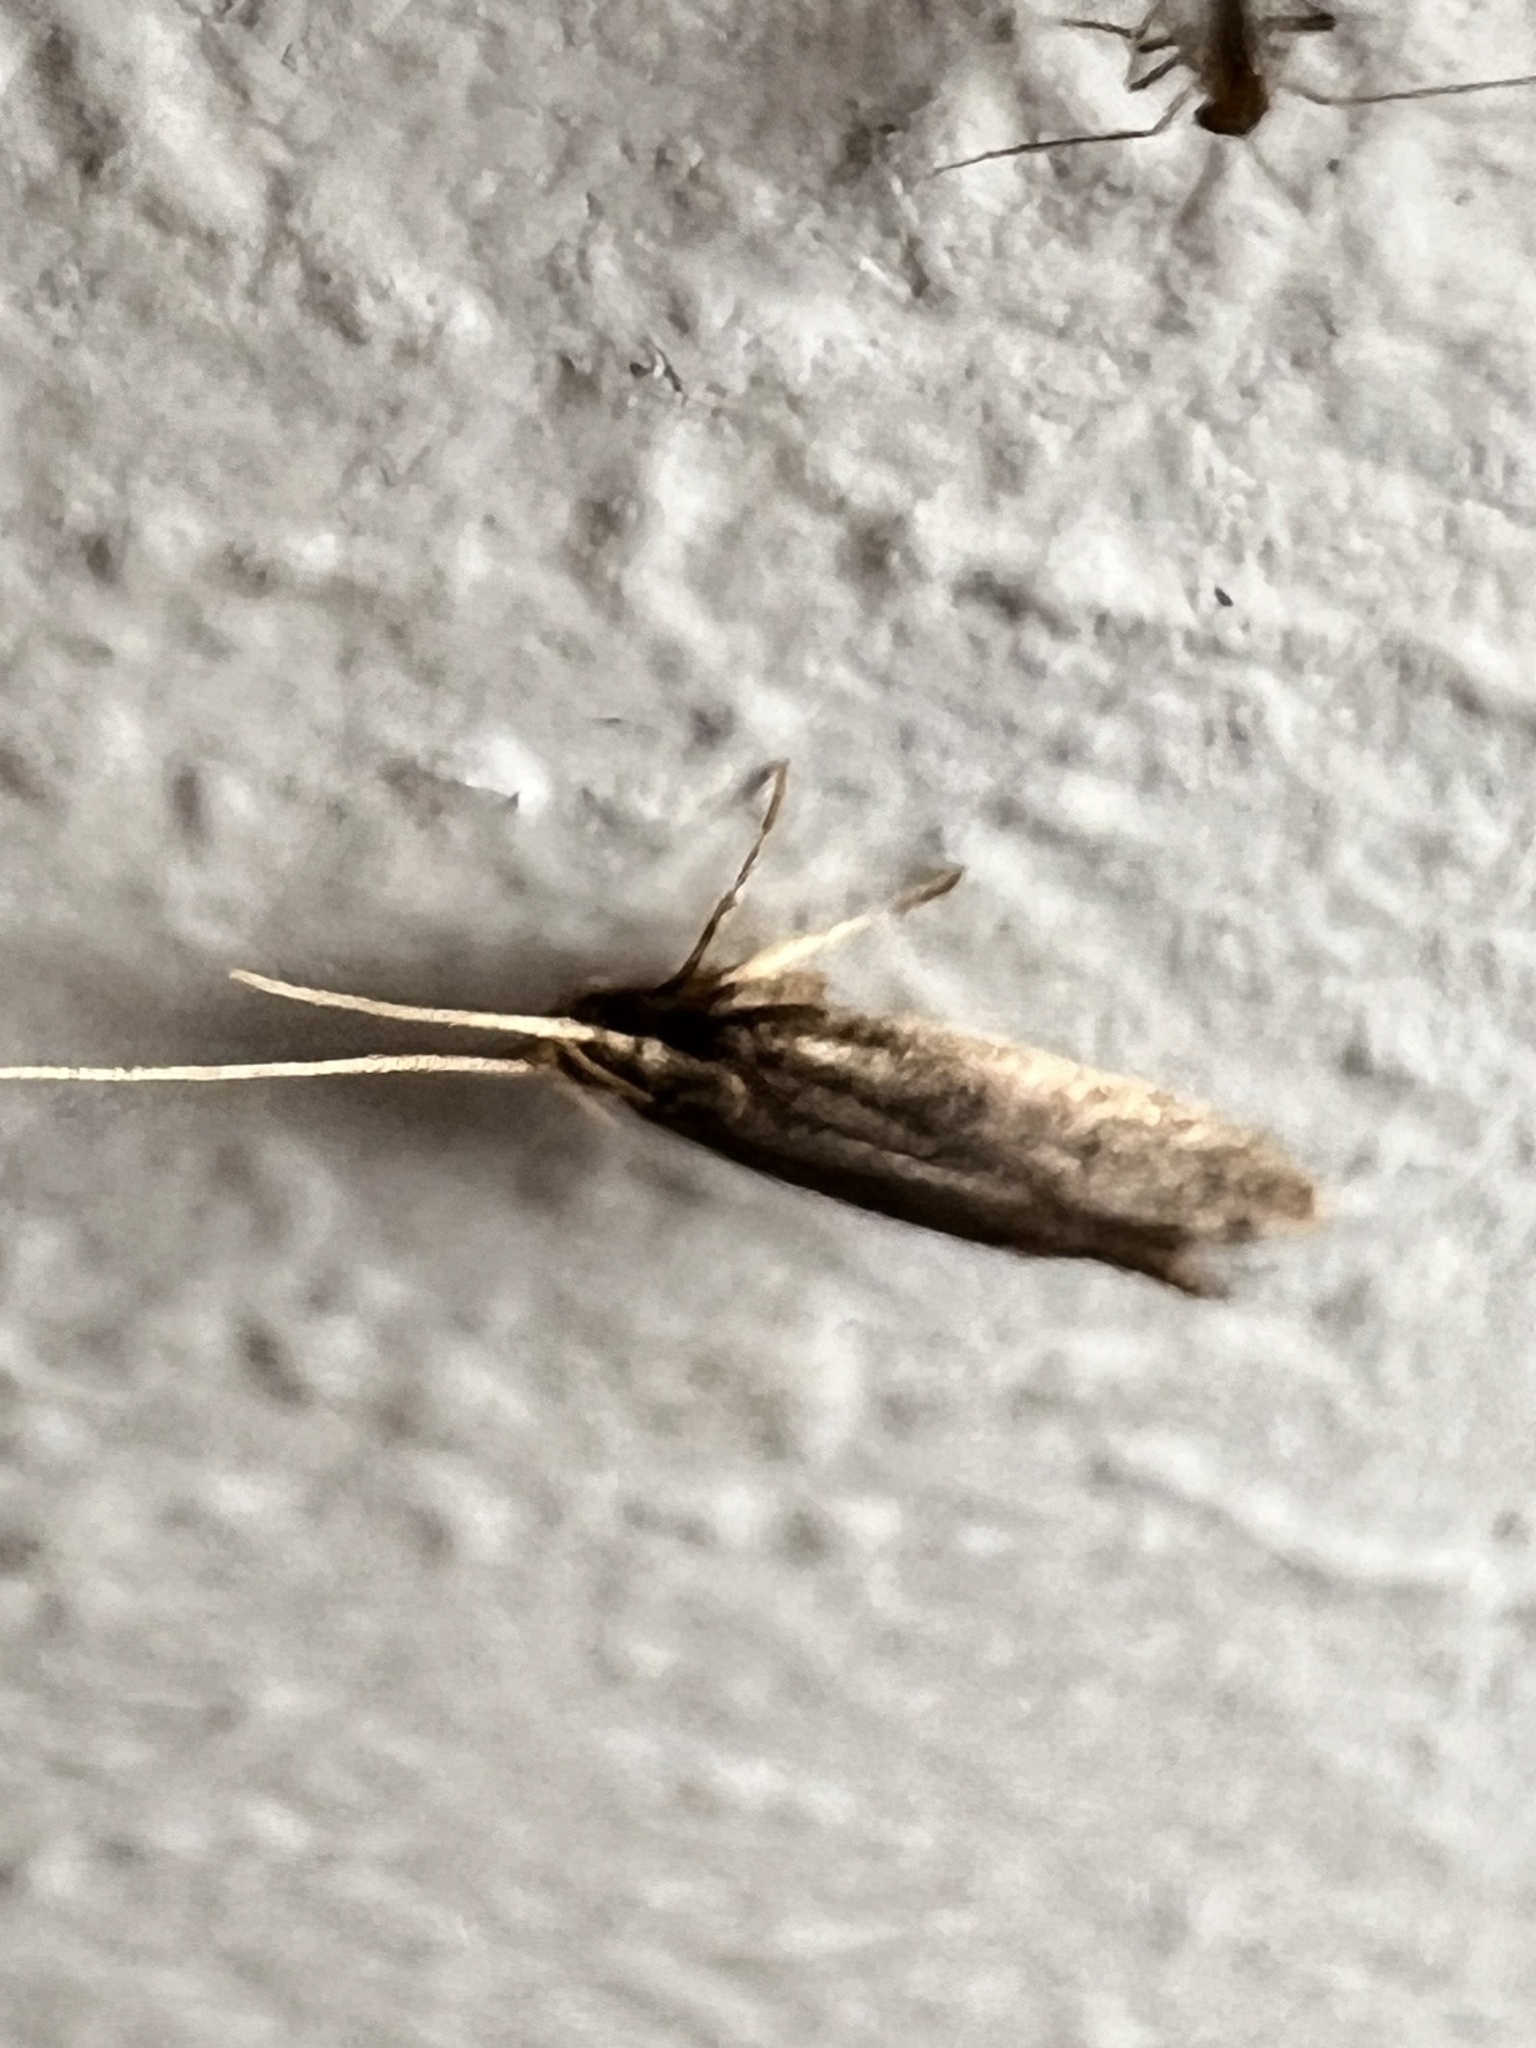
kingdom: Animalia
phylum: Arthropoda
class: Insecta
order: Lepidoptera
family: Lecithoceridae
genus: Lecithocera
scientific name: Lecithocera micromela
